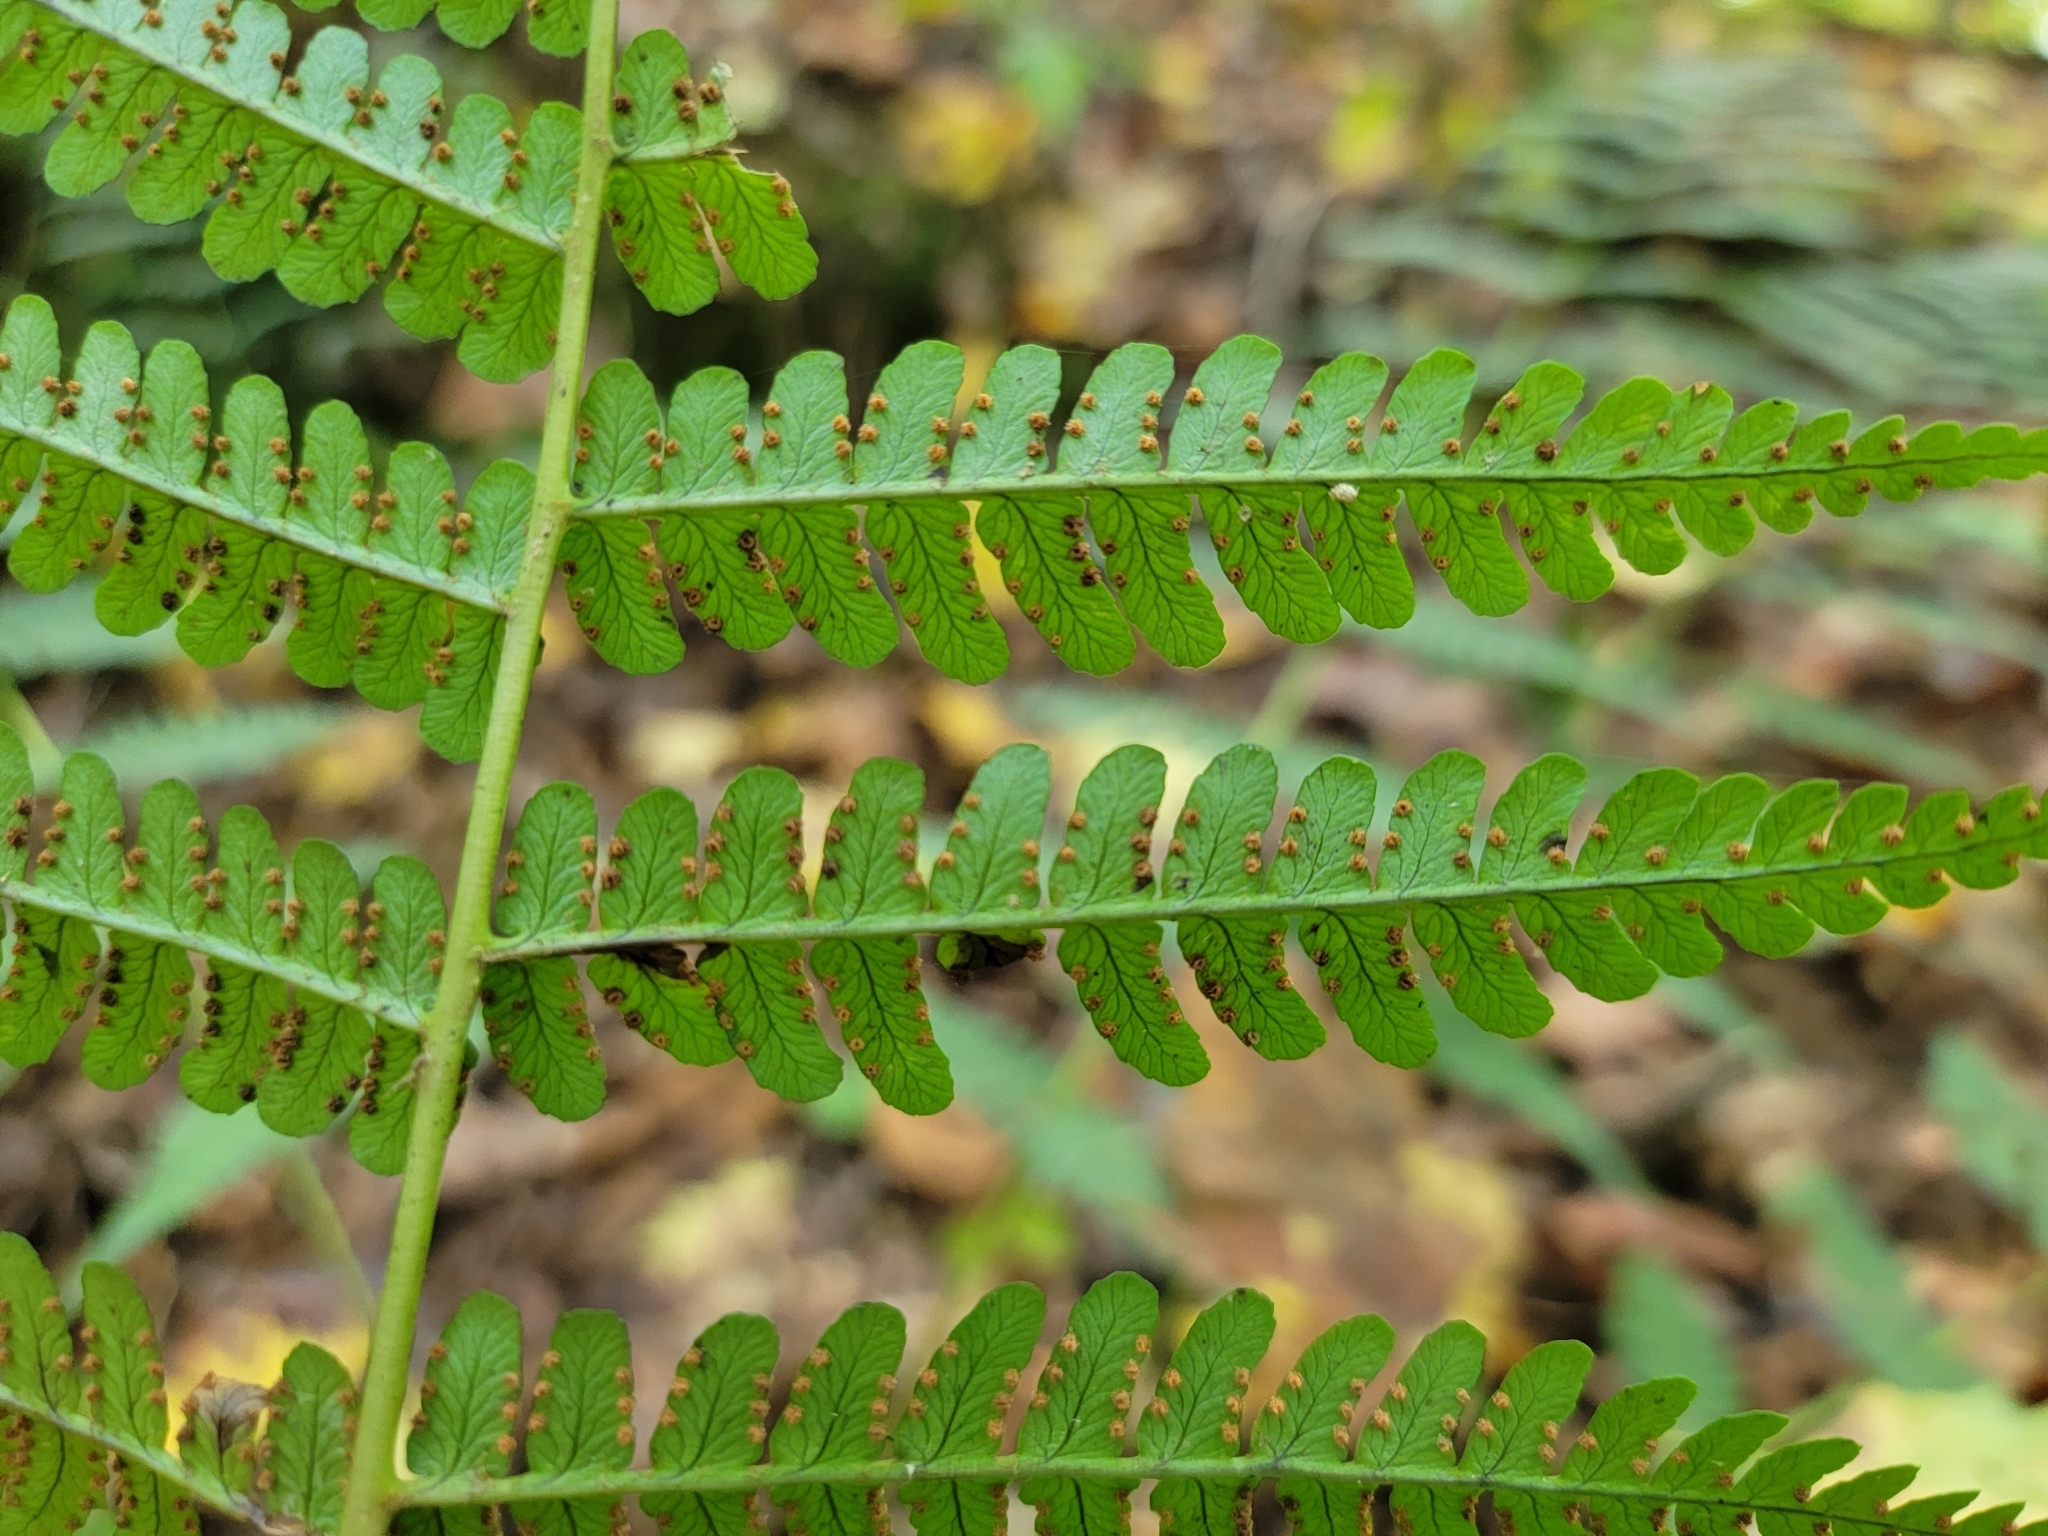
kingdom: Plantae
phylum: Tracheophyta
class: Polypodiopsida
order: Polypodiales
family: Dryopteridaceae
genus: Dryopteris
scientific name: Dryopteris marginalis
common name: Marginal wood fern
